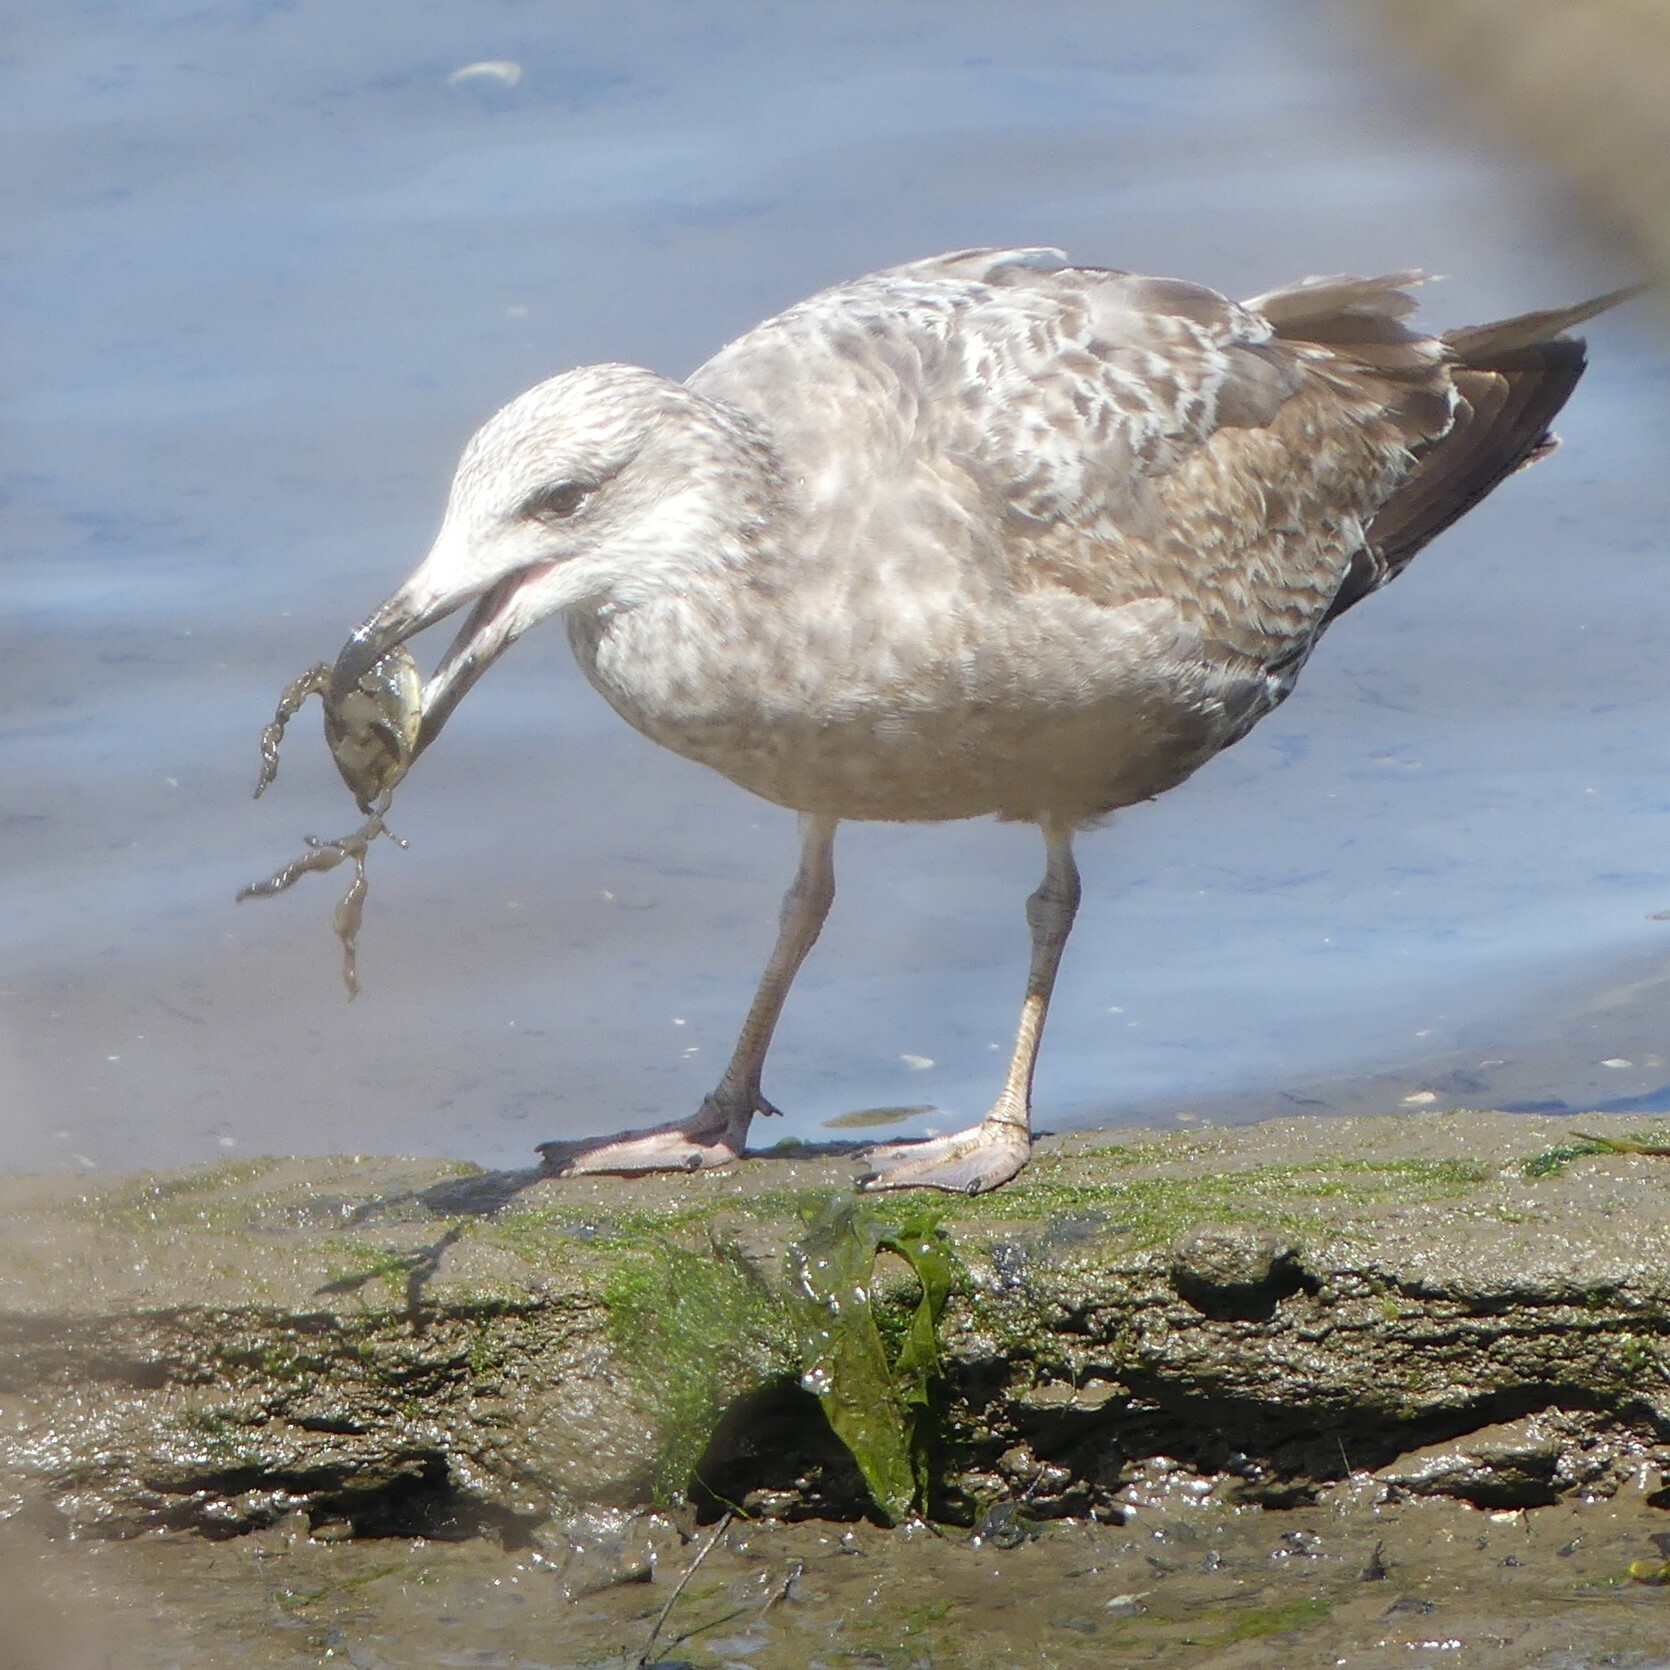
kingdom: Animalia
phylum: Chordata
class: Aves
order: Charadriiformes
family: Laridae
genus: Larus
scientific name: Larus argentatus
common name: Herring gull
